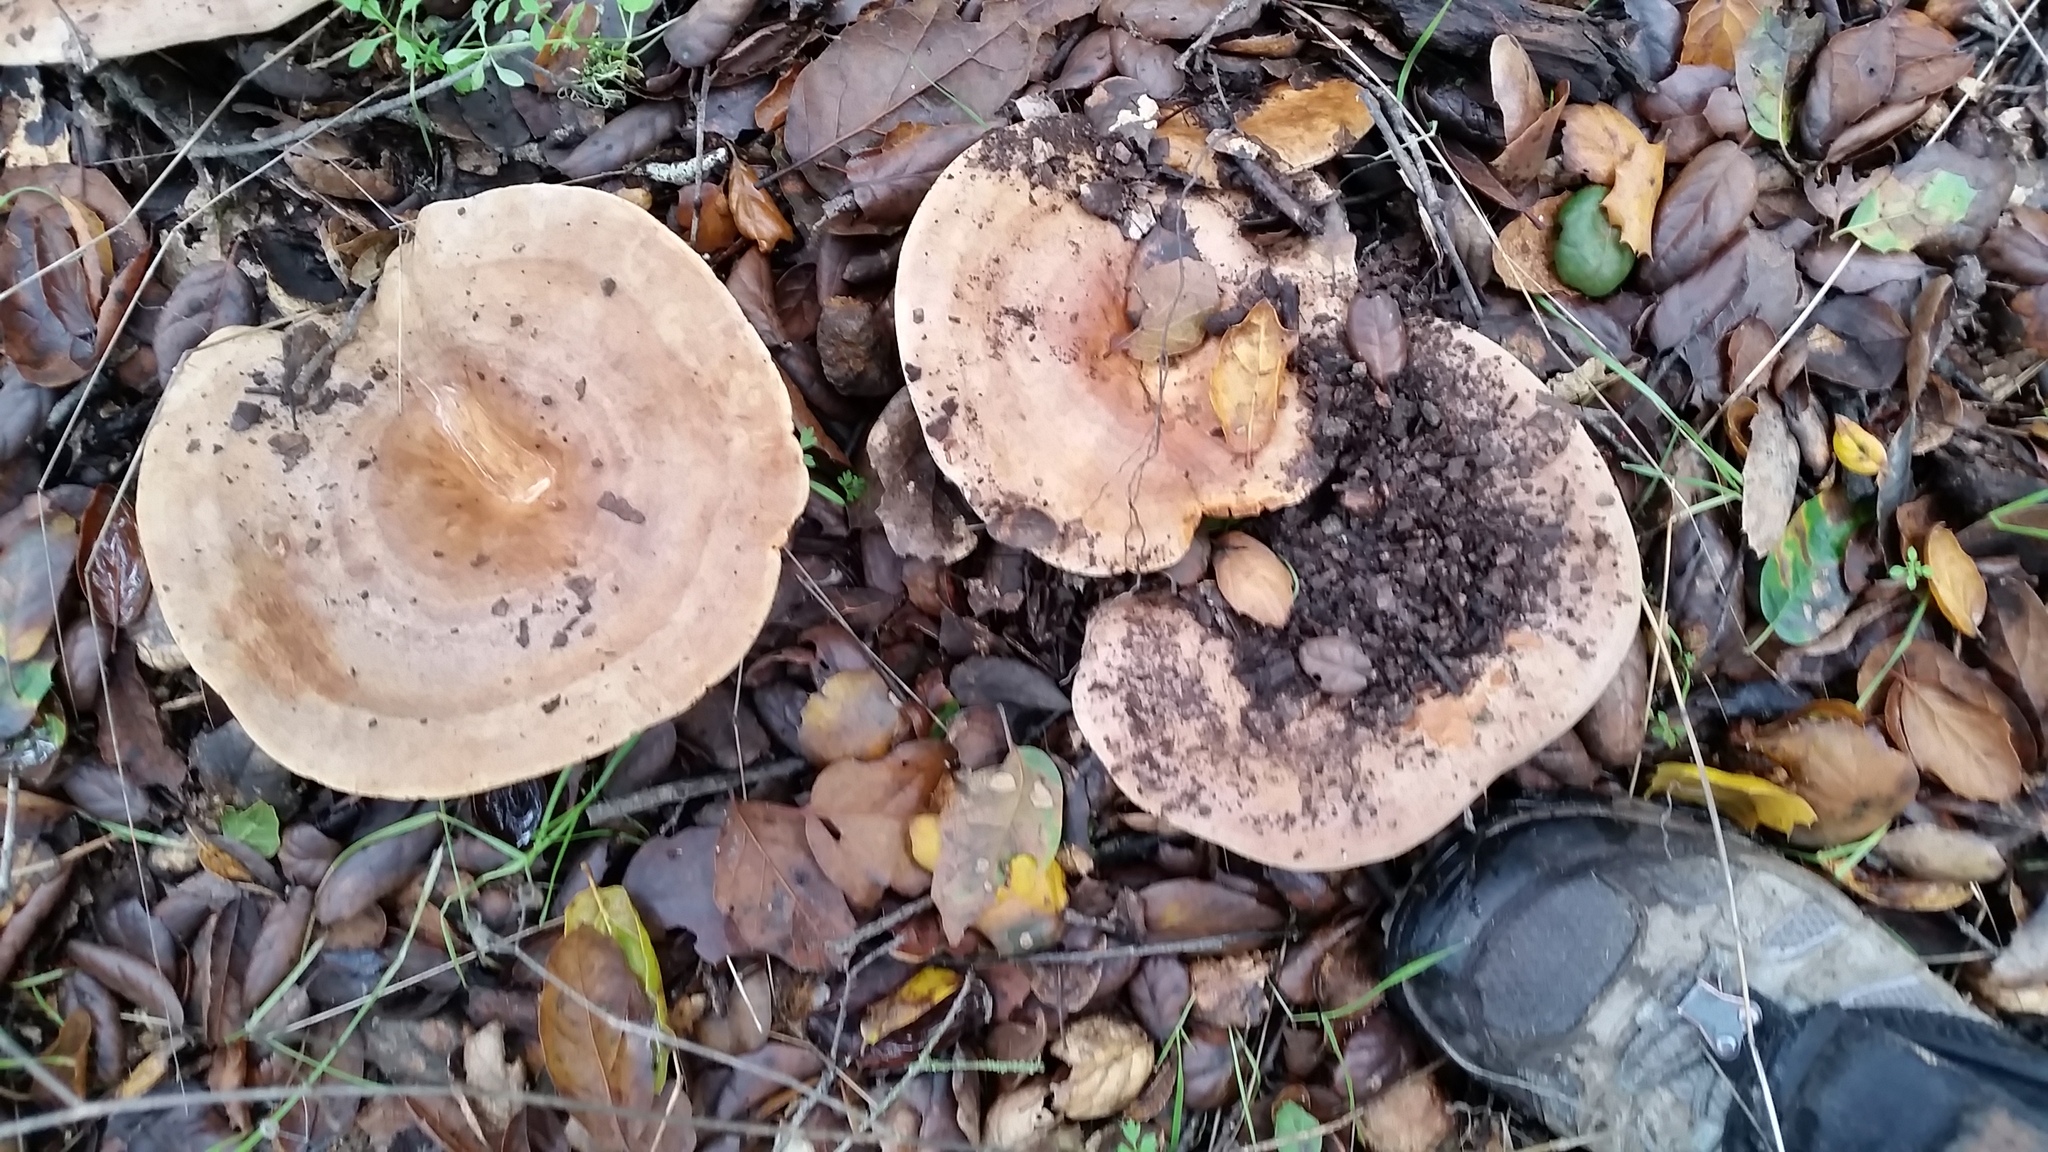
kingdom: Fungi
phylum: Basidiomycota
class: Agaricomycetes
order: Russulales
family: Russulaceae
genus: Lactarius
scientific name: Lactarius argillaceifolius
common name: Clay-gilled milkcap
